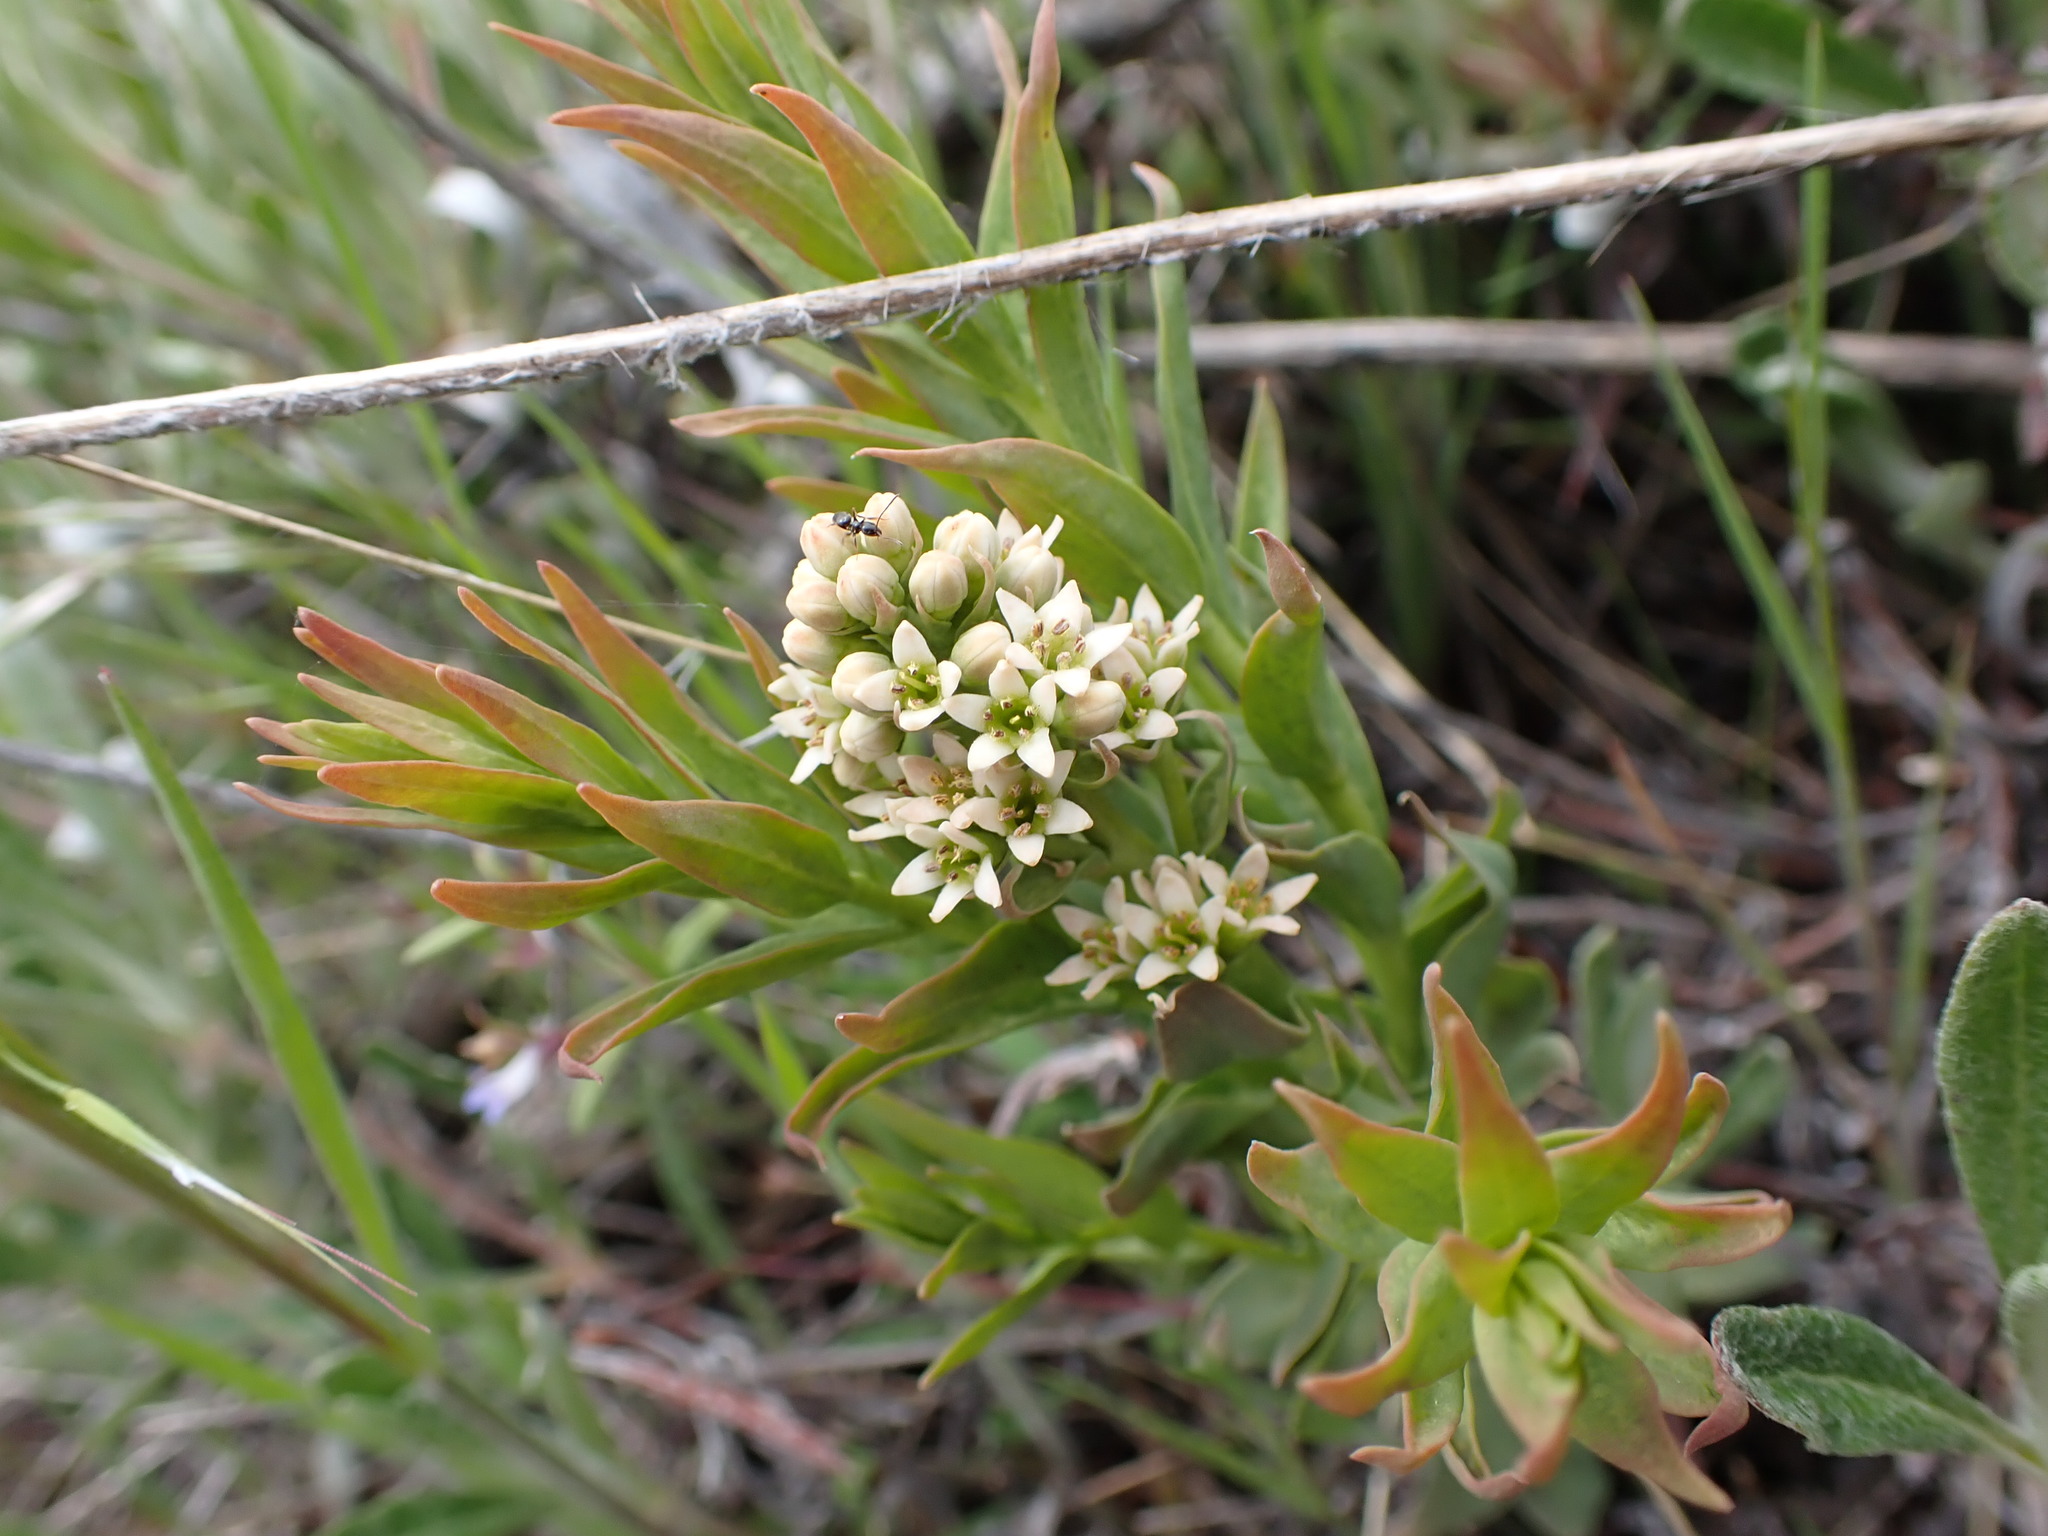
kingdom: Plantae
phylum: Tracheophyta
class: Magnoliopsida
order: Santalales
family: Comandraceae
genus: Comandra
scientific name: Comandra umbellata
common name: Bastard toadflax
